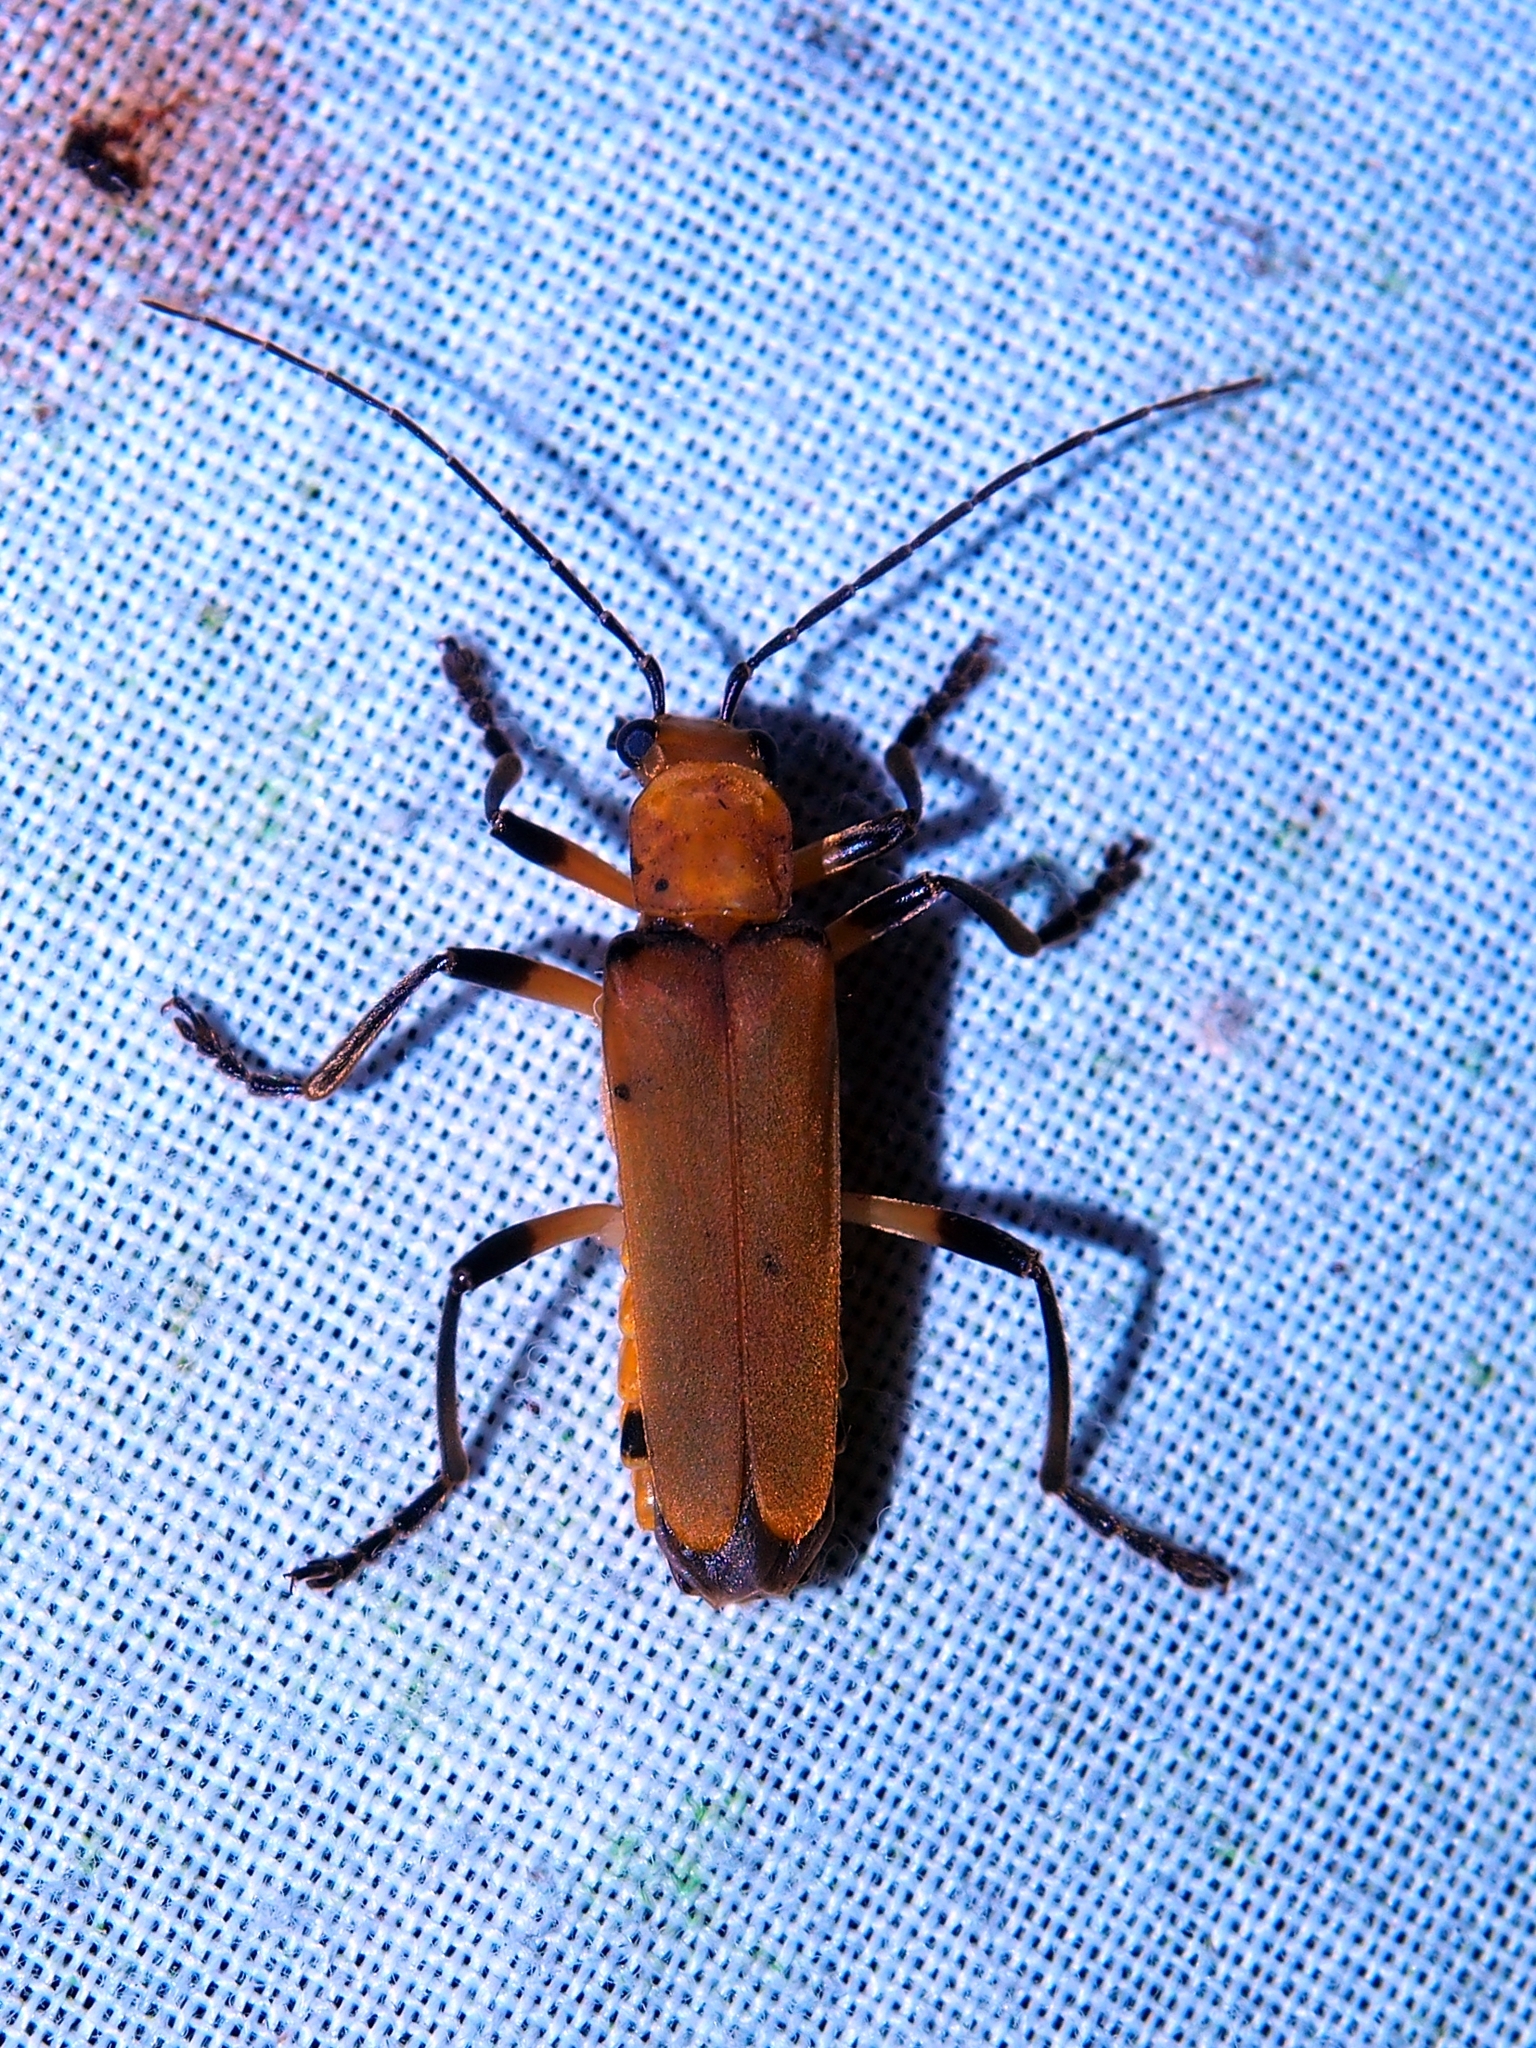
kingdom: Animalia
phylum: Arthropoda
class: Insecta
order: Coleoptera
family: Cantharidae
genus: Chauliognathus
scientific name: Chauliognathus
